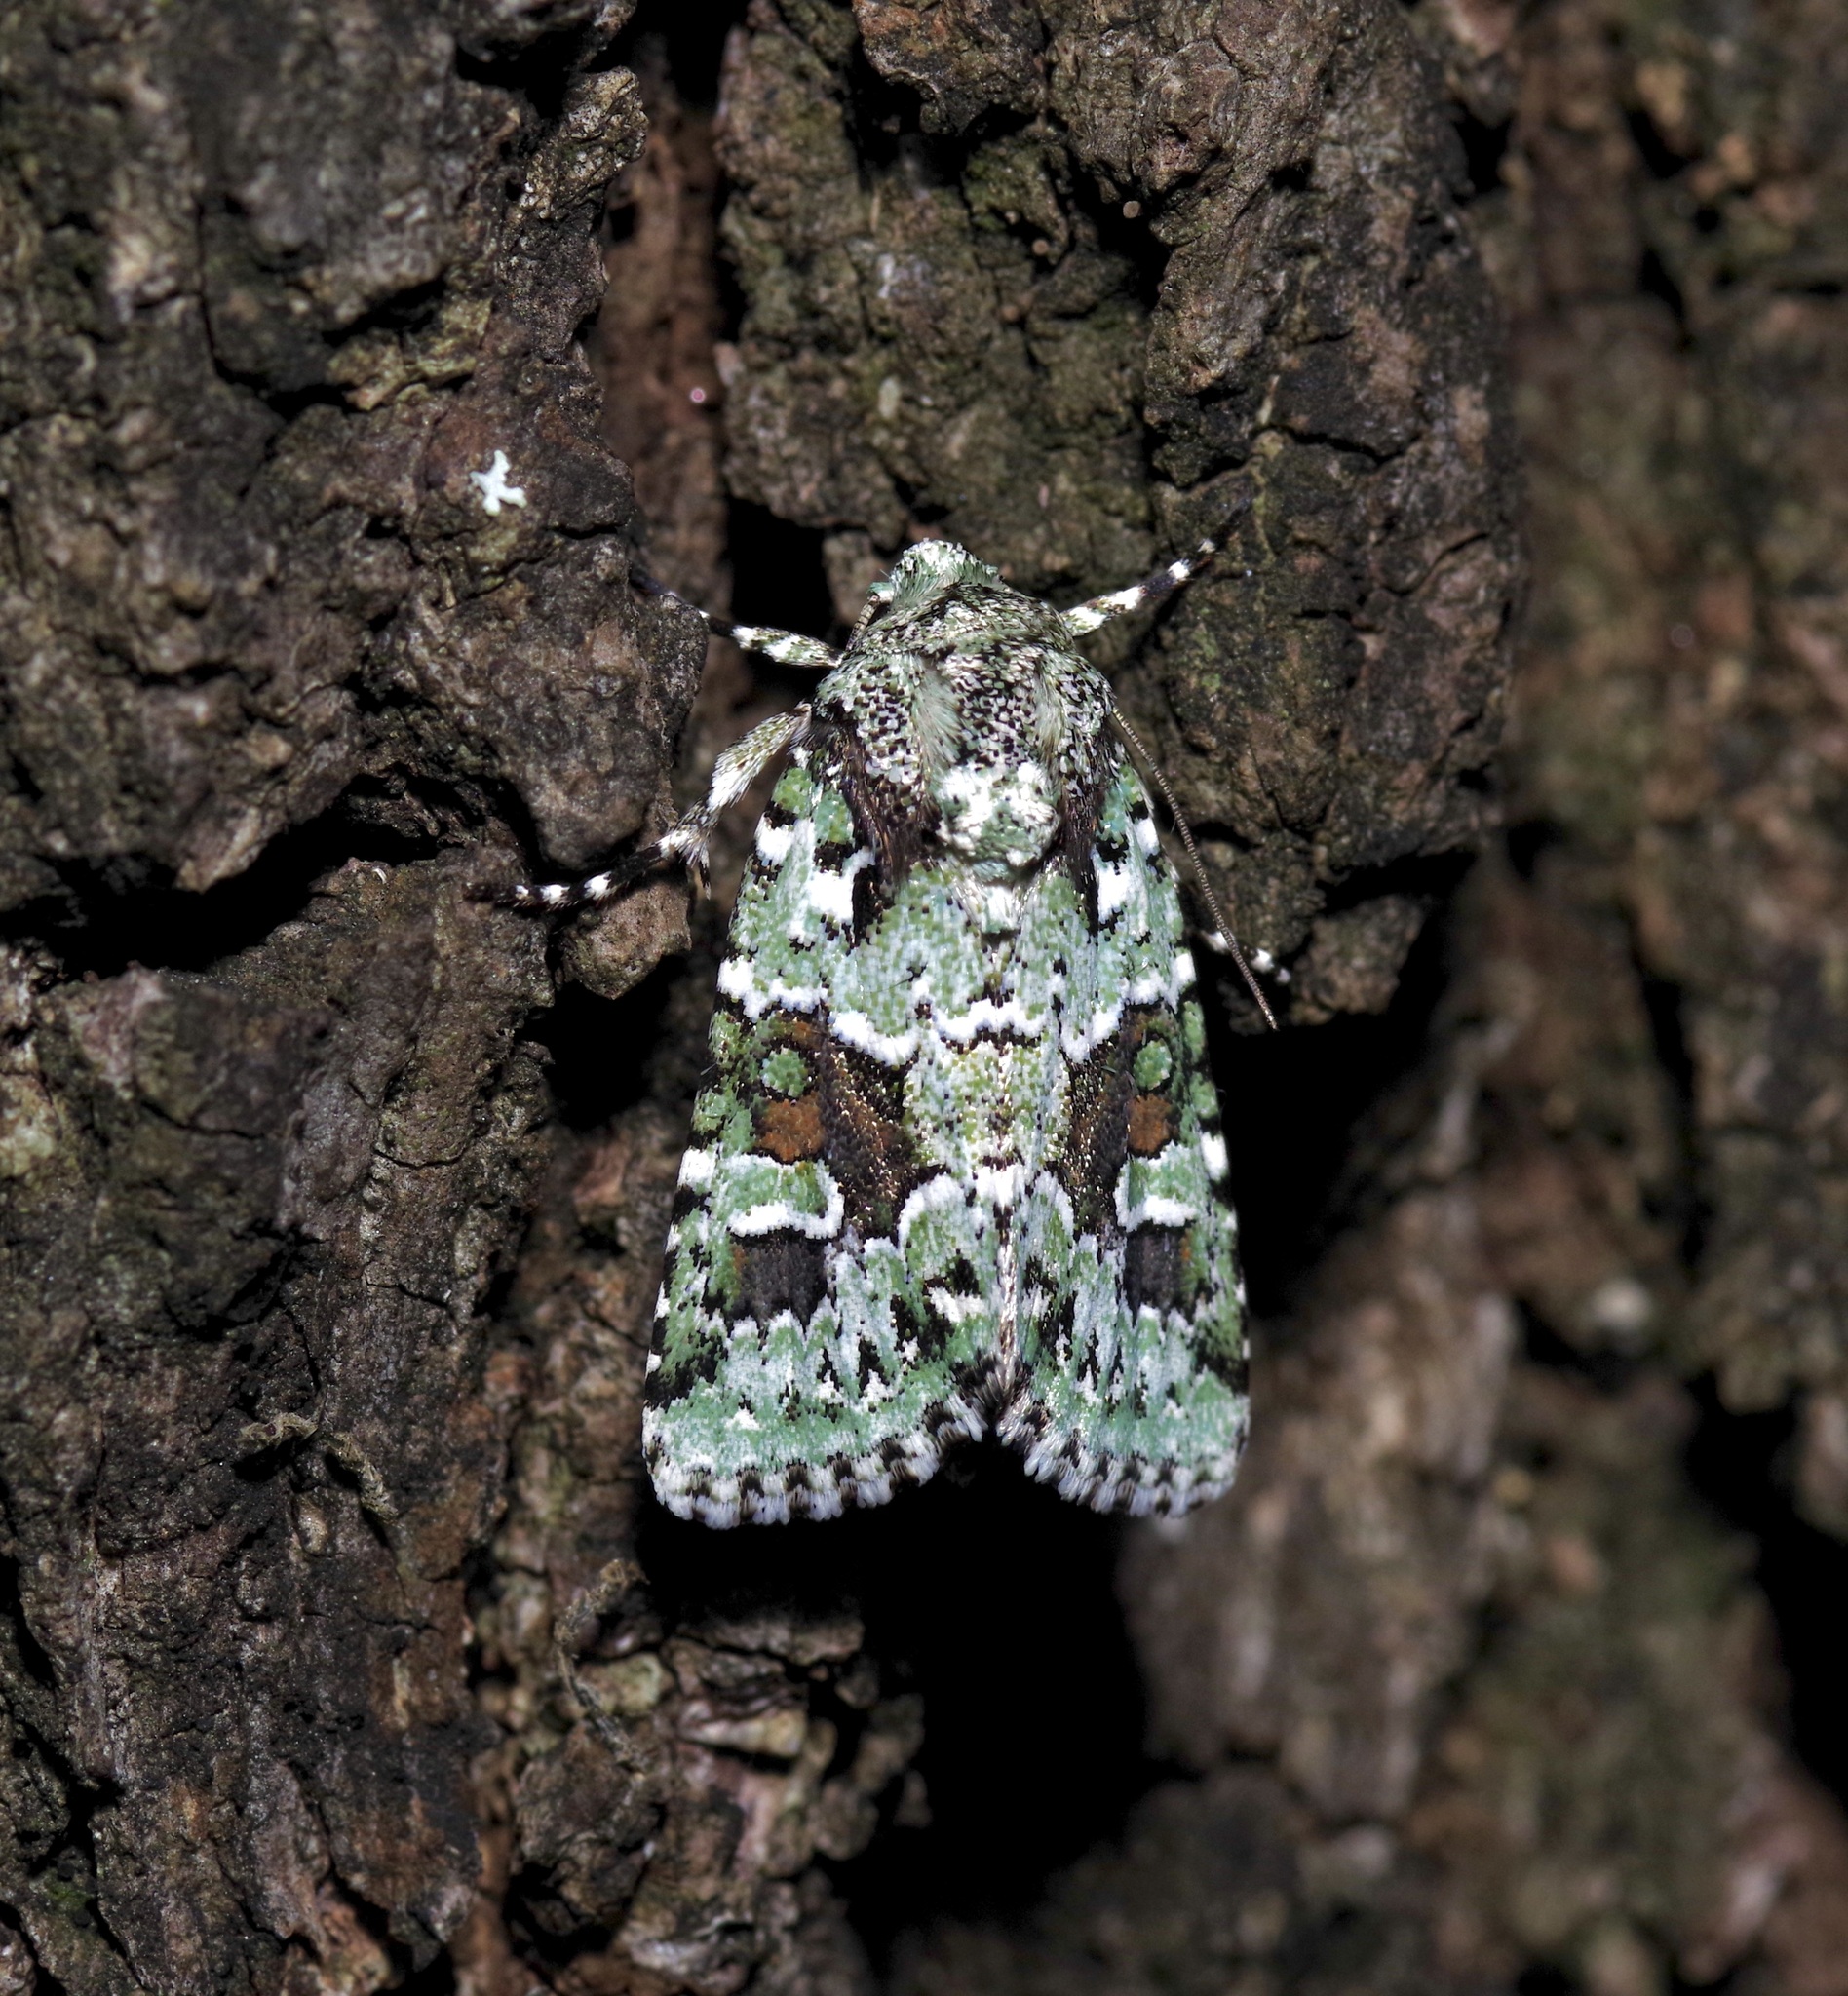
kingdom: Animalia
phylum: Arthropoda
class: Insecta
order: Lepidoptera
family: Noctuidae
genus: Lacinipolia
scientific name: Lacinipolia laudabilis
